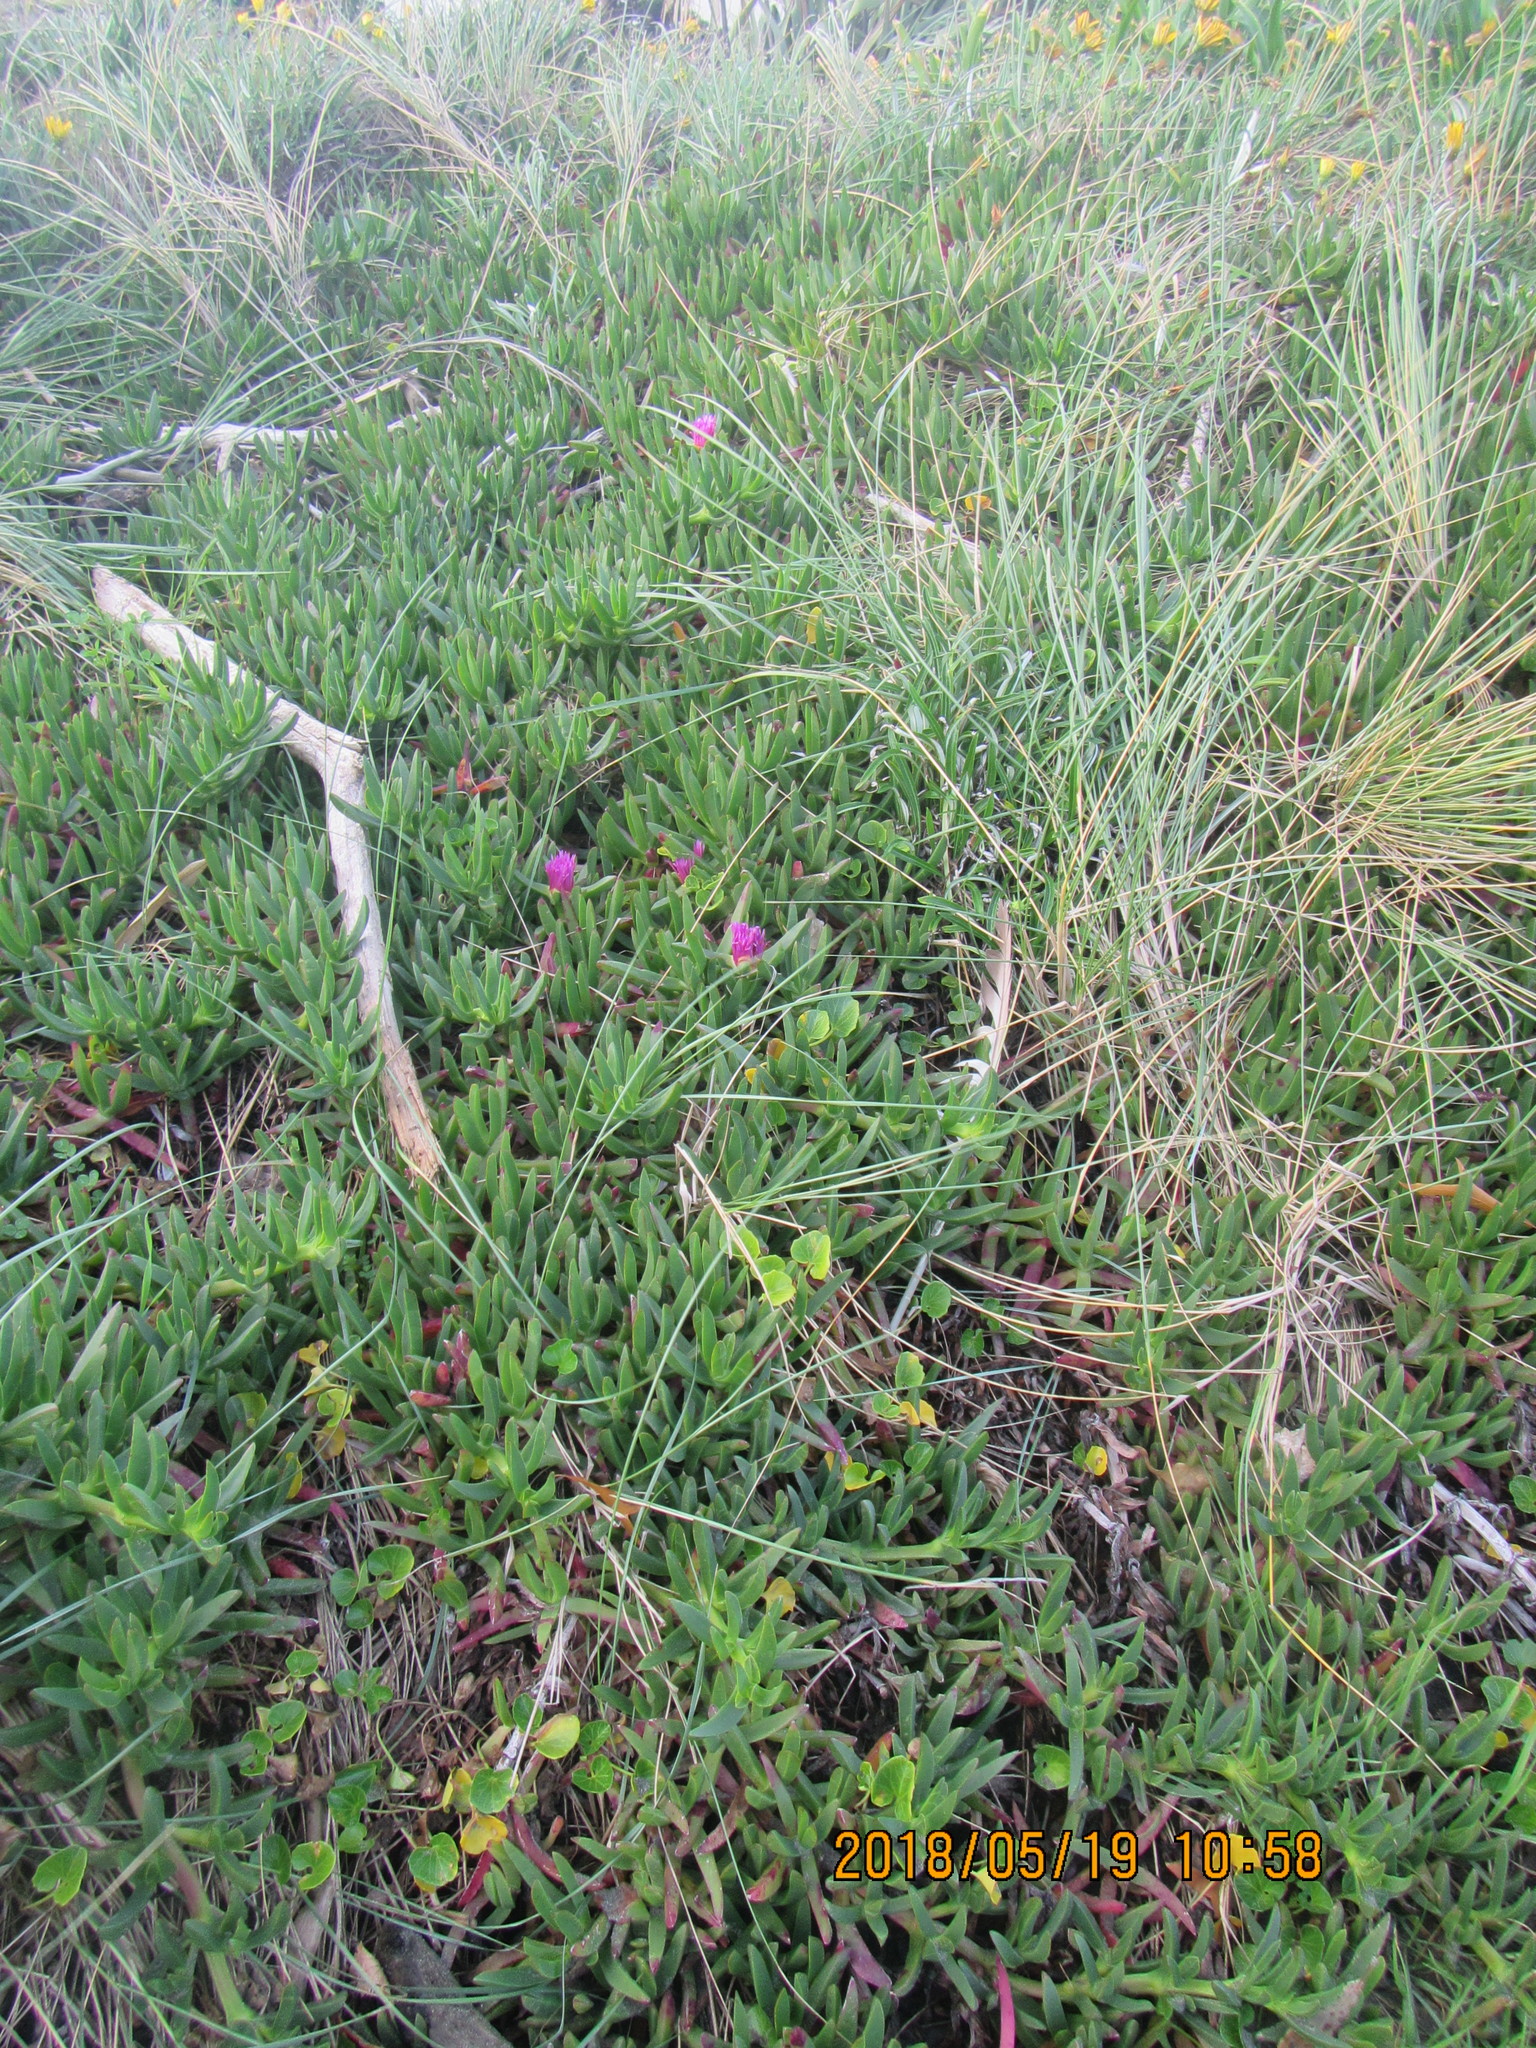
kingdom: Plantae
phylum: Tracheophyta
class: Magnoliopsida
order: Caryophyllales
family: Aizoaceae
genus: Carpobrotus
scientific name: Carpobrotus chilensis
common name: Sea fig
